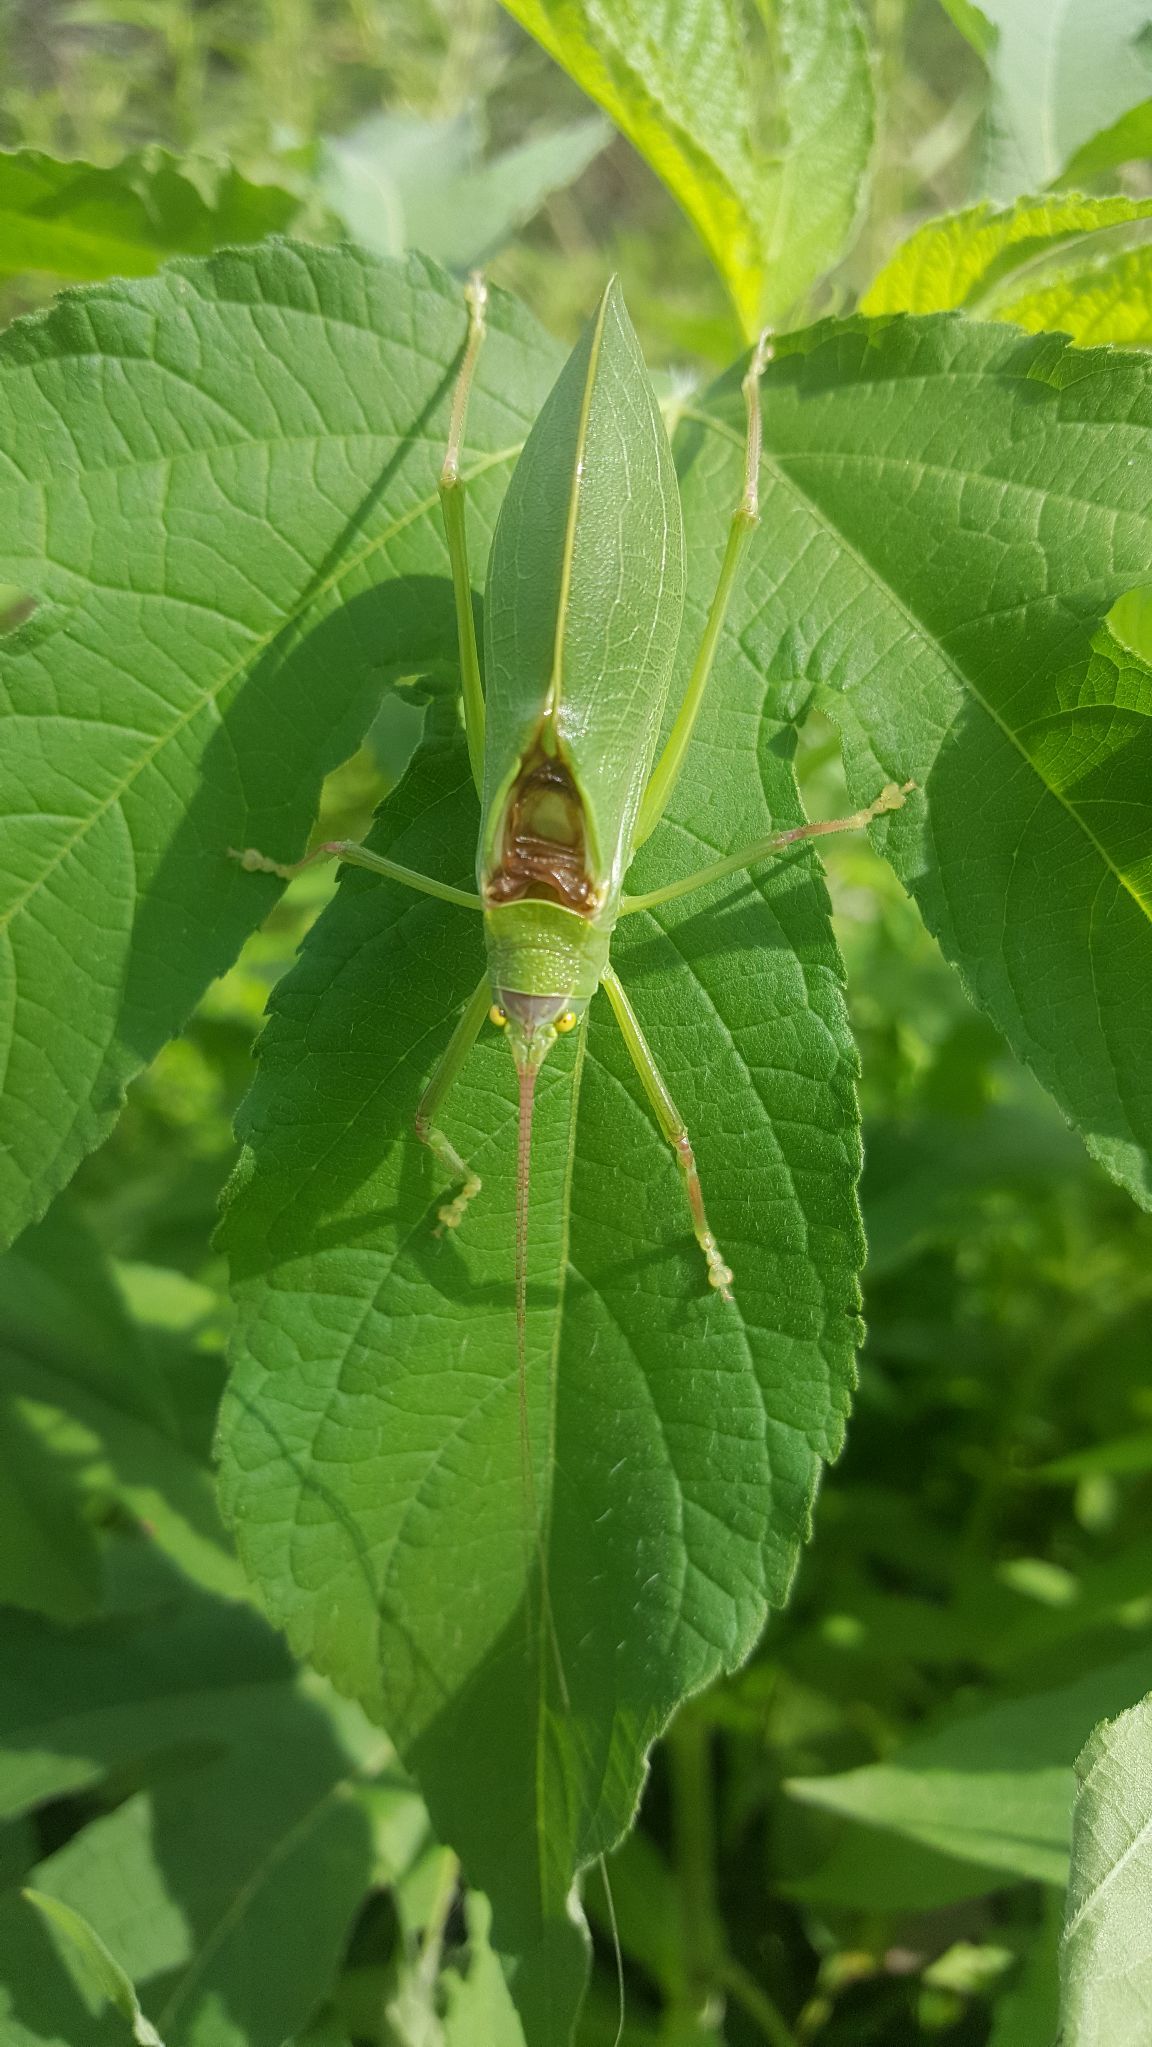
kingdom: Animalia
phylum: Arthropoda
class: Insecta
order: Orthoptera
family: Tettigoniidae
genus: Pterophylla
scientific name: Pterophylla camellifolia
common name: Common true katydid
